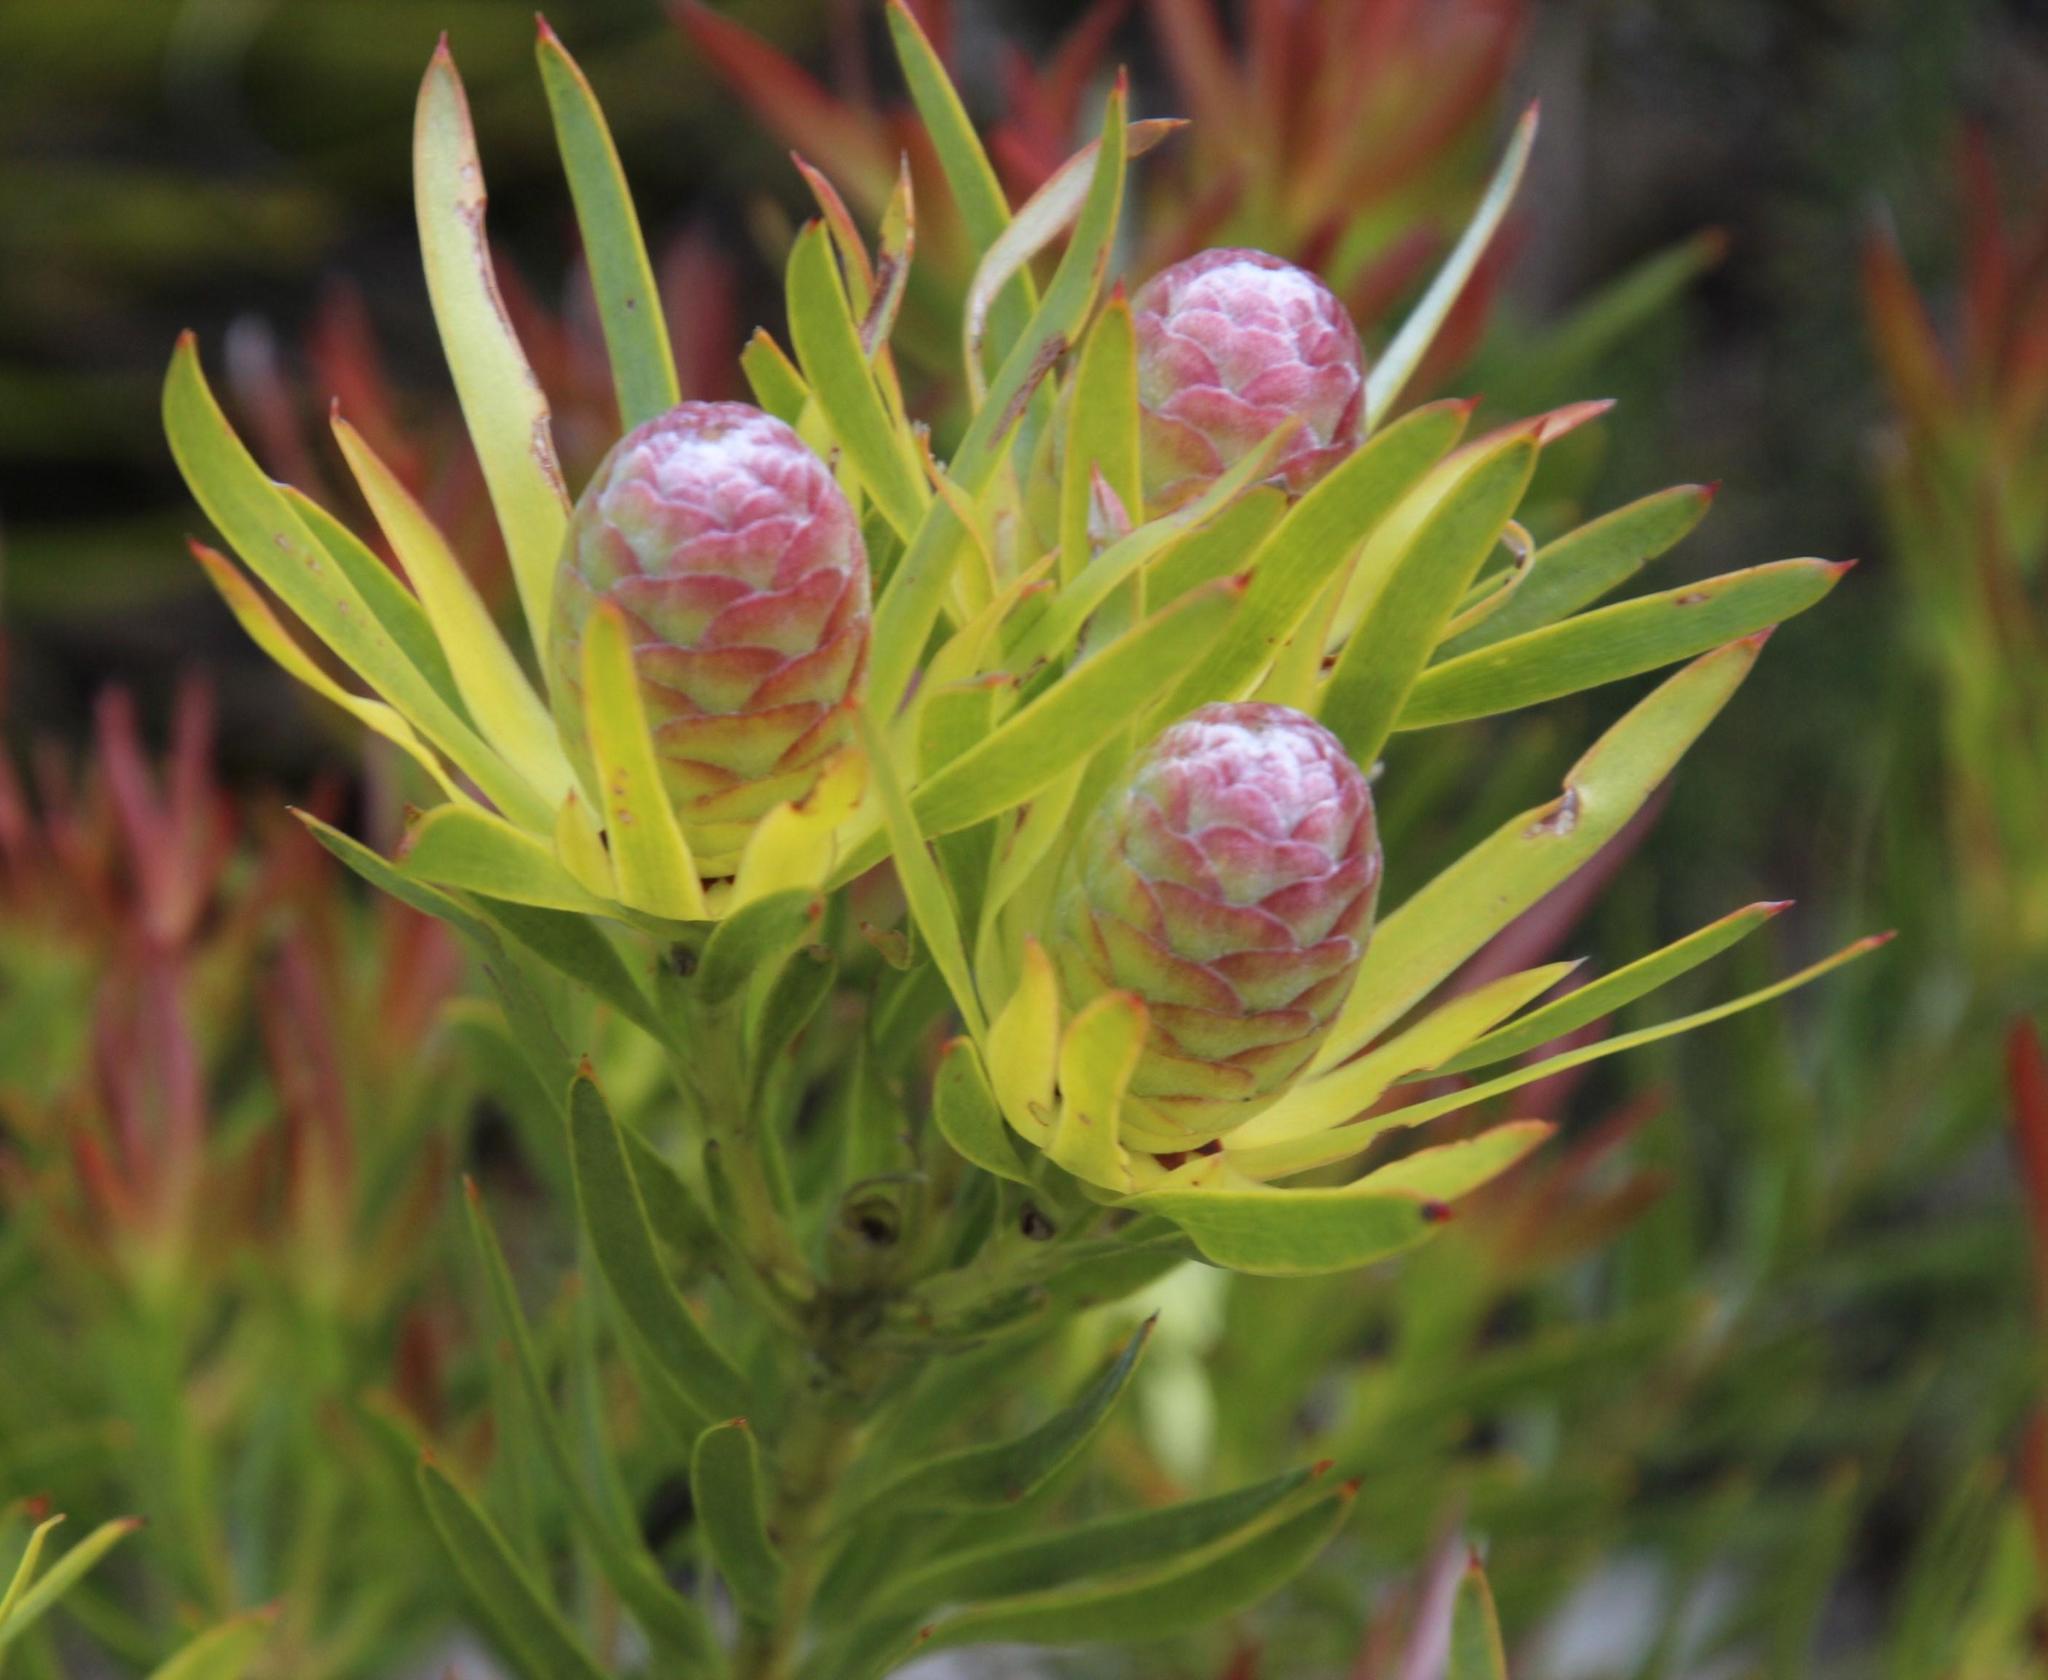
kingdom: Plantae
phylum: Tracheophyta
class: Magnoliopsida
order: Proteales
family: Proteaceae
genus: Leucadendron
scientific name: Leucadendron xanthoconus
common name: Sickle-leaf conebush
